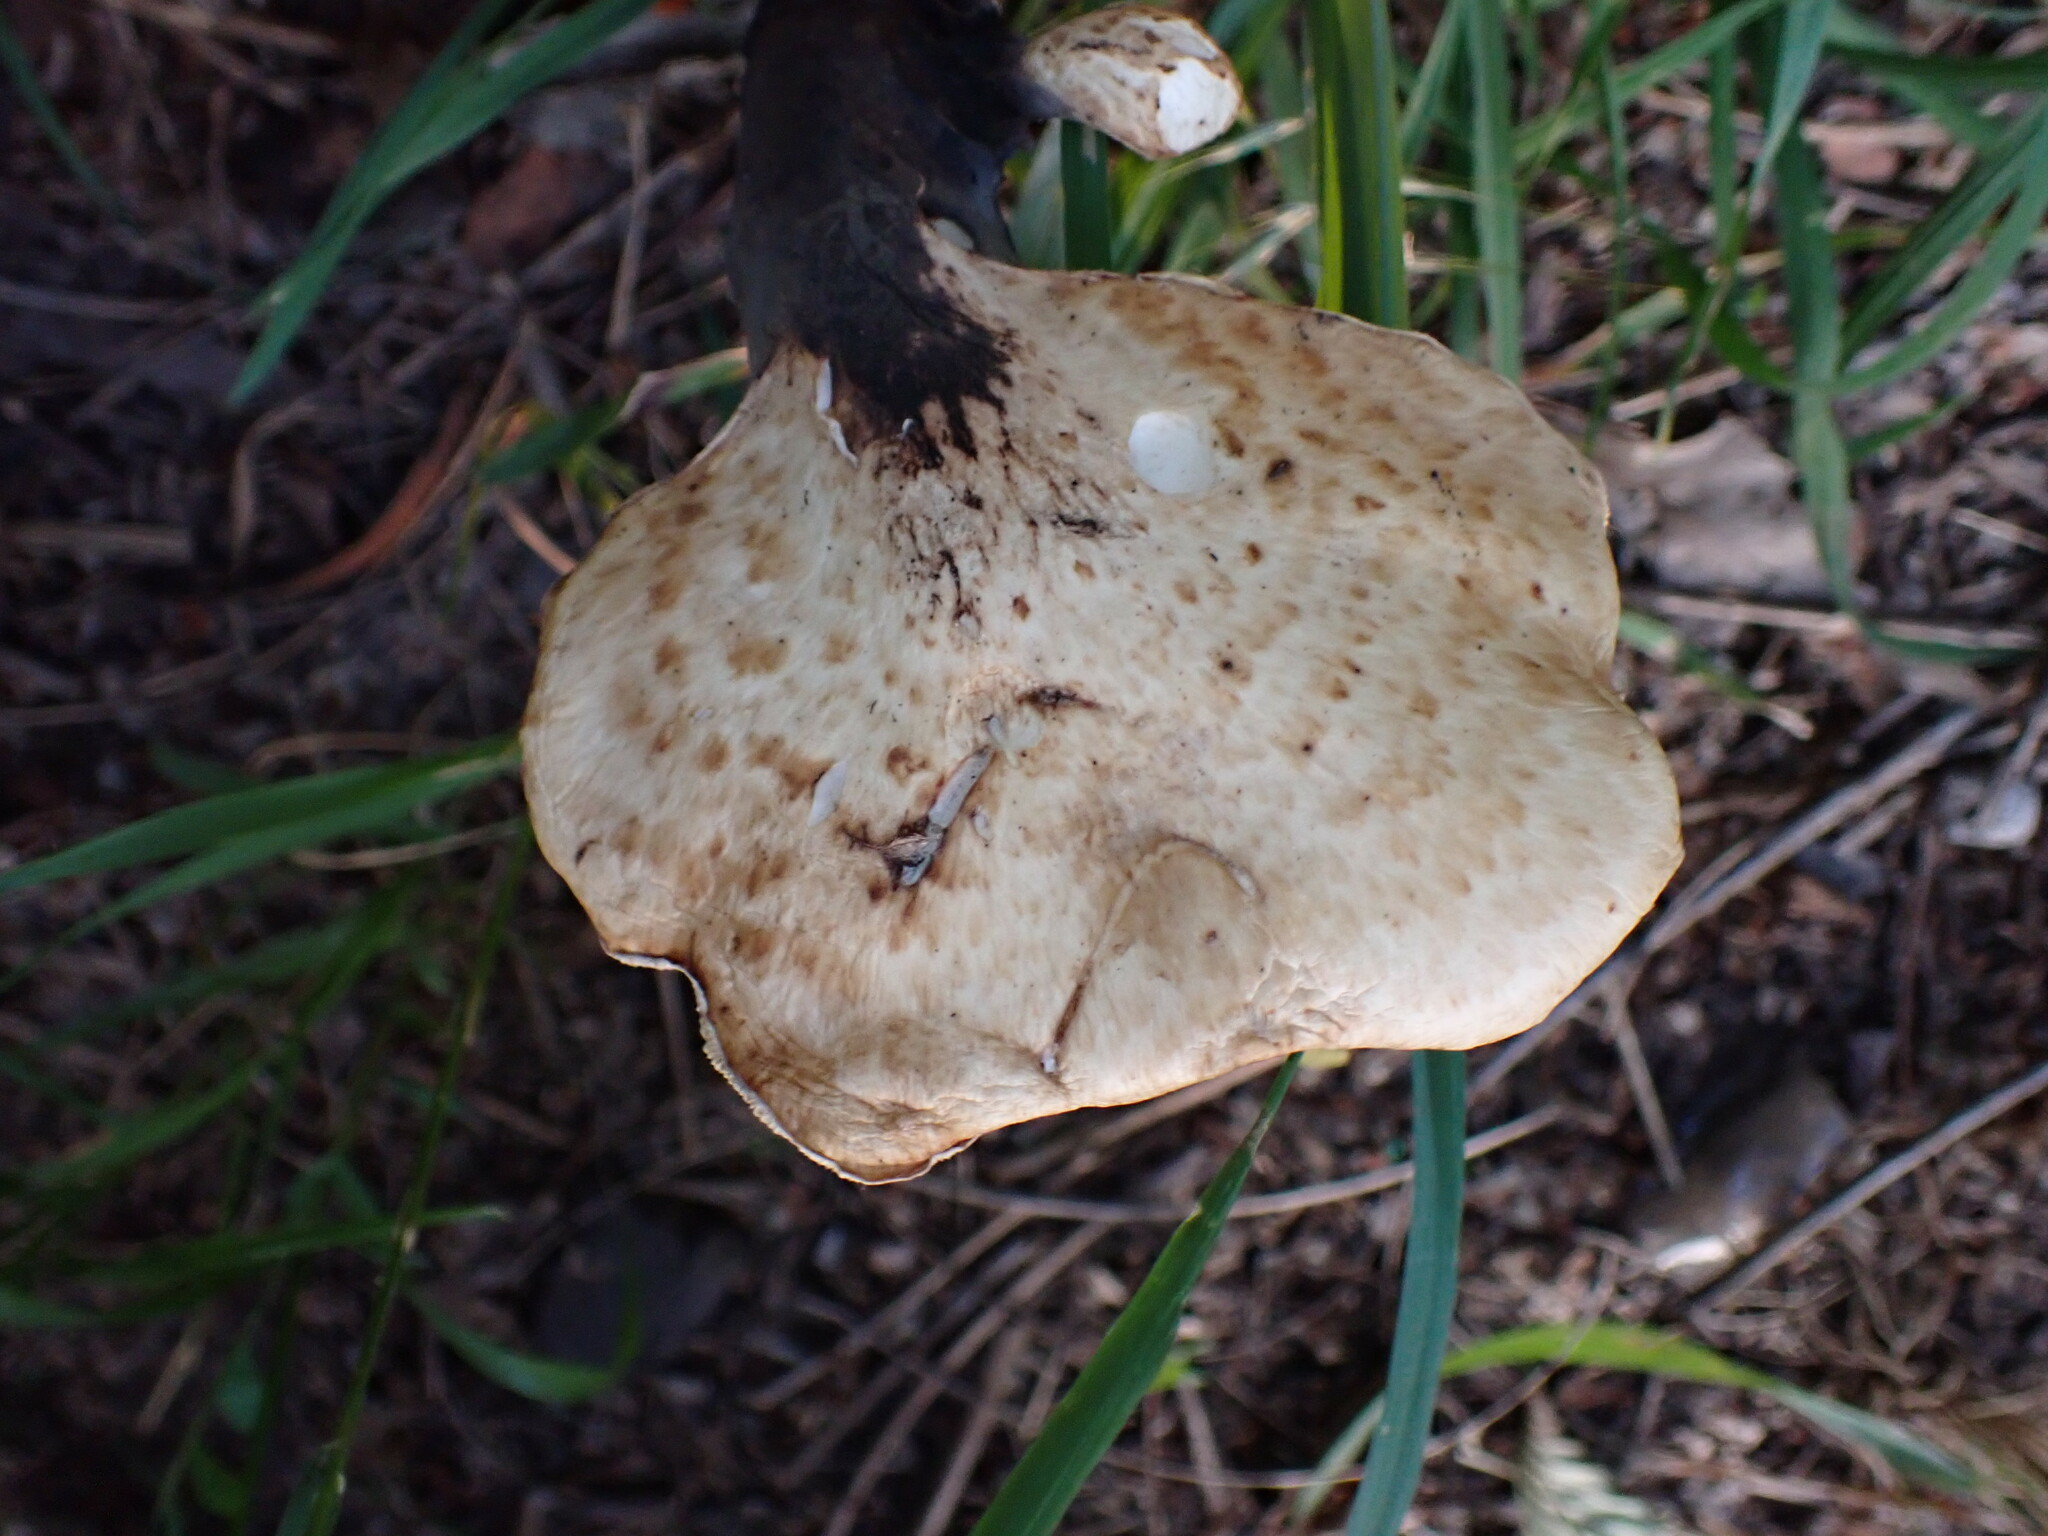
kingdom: Fungi
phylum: Basidiomycota
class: Agaricomycetes
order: Polyporales
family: Polyporaceae
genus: Cerioporus
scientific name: Cerioporus squamosus
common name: Dryad's saddle
